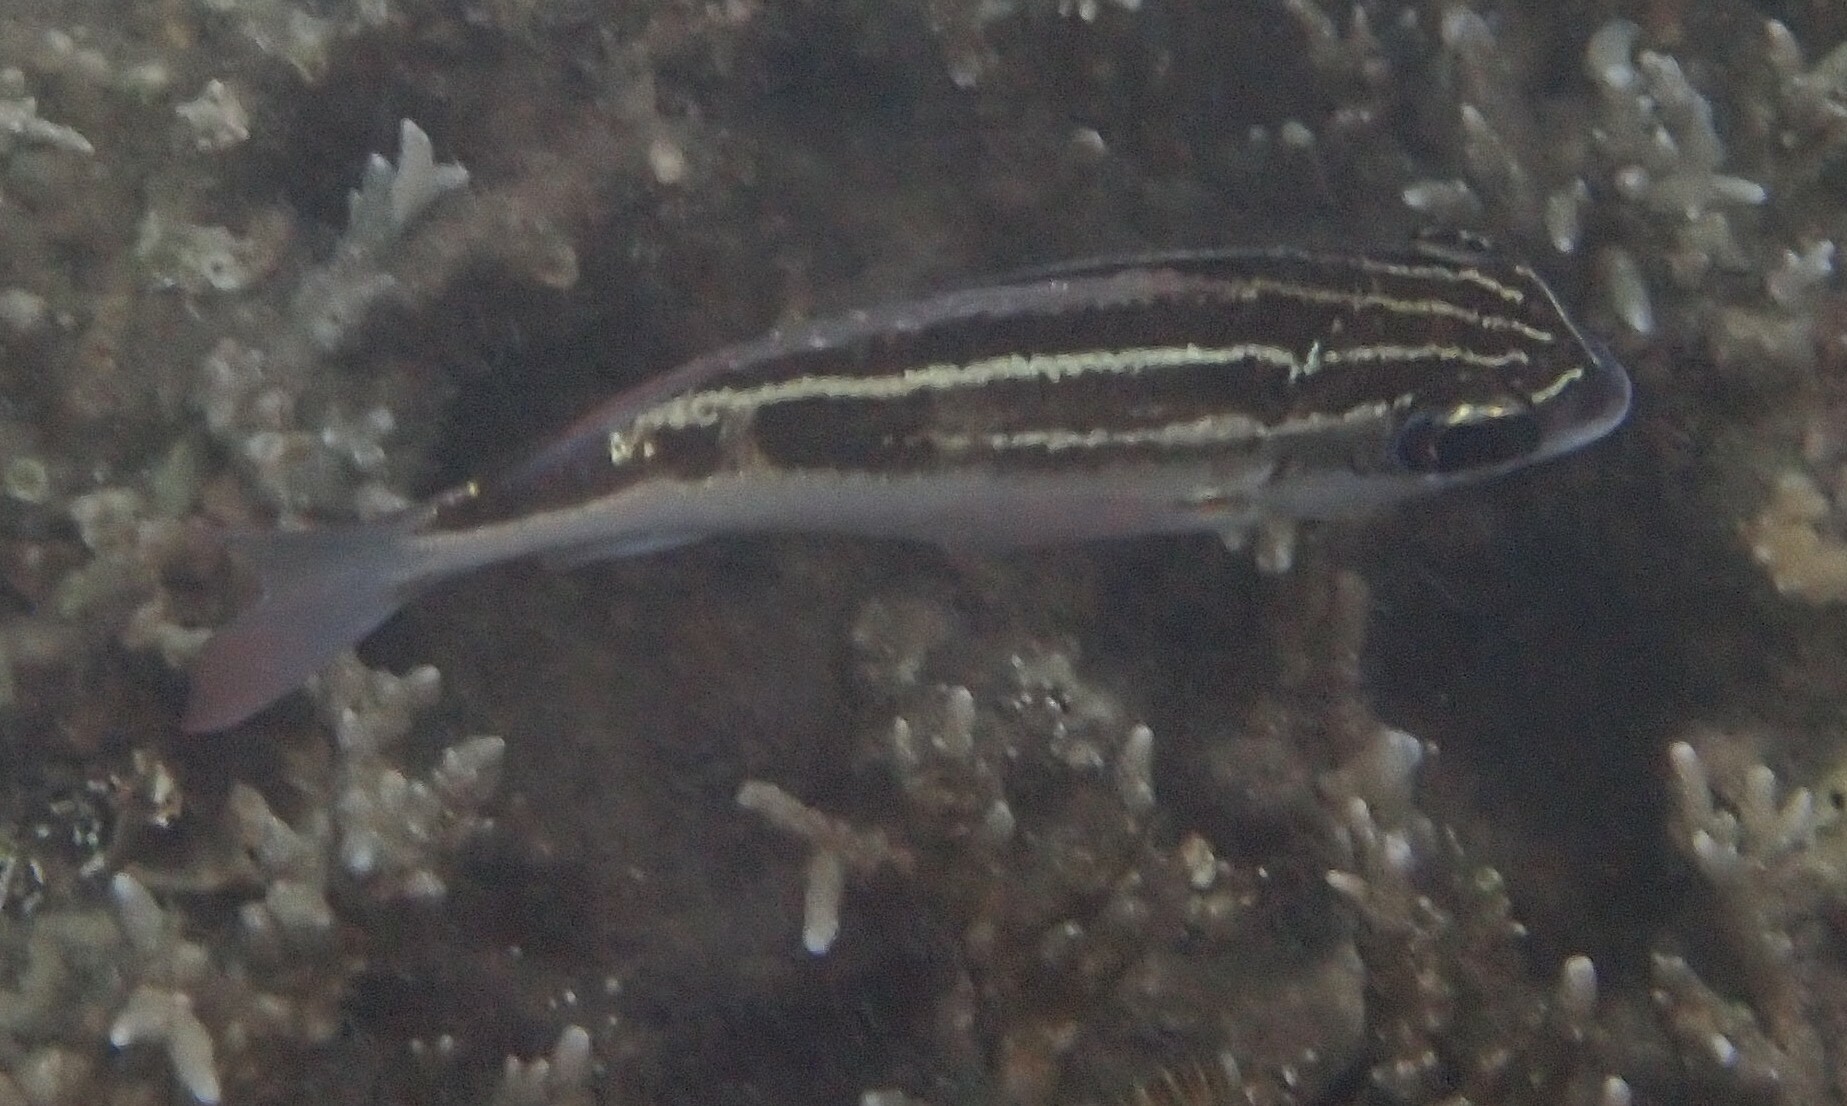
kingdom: Animalia
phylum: Chordata
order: Perciformes
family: Nemipteridae
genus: Scolopsis
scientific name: Scolopsis lineata
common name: Striped monocle bream
